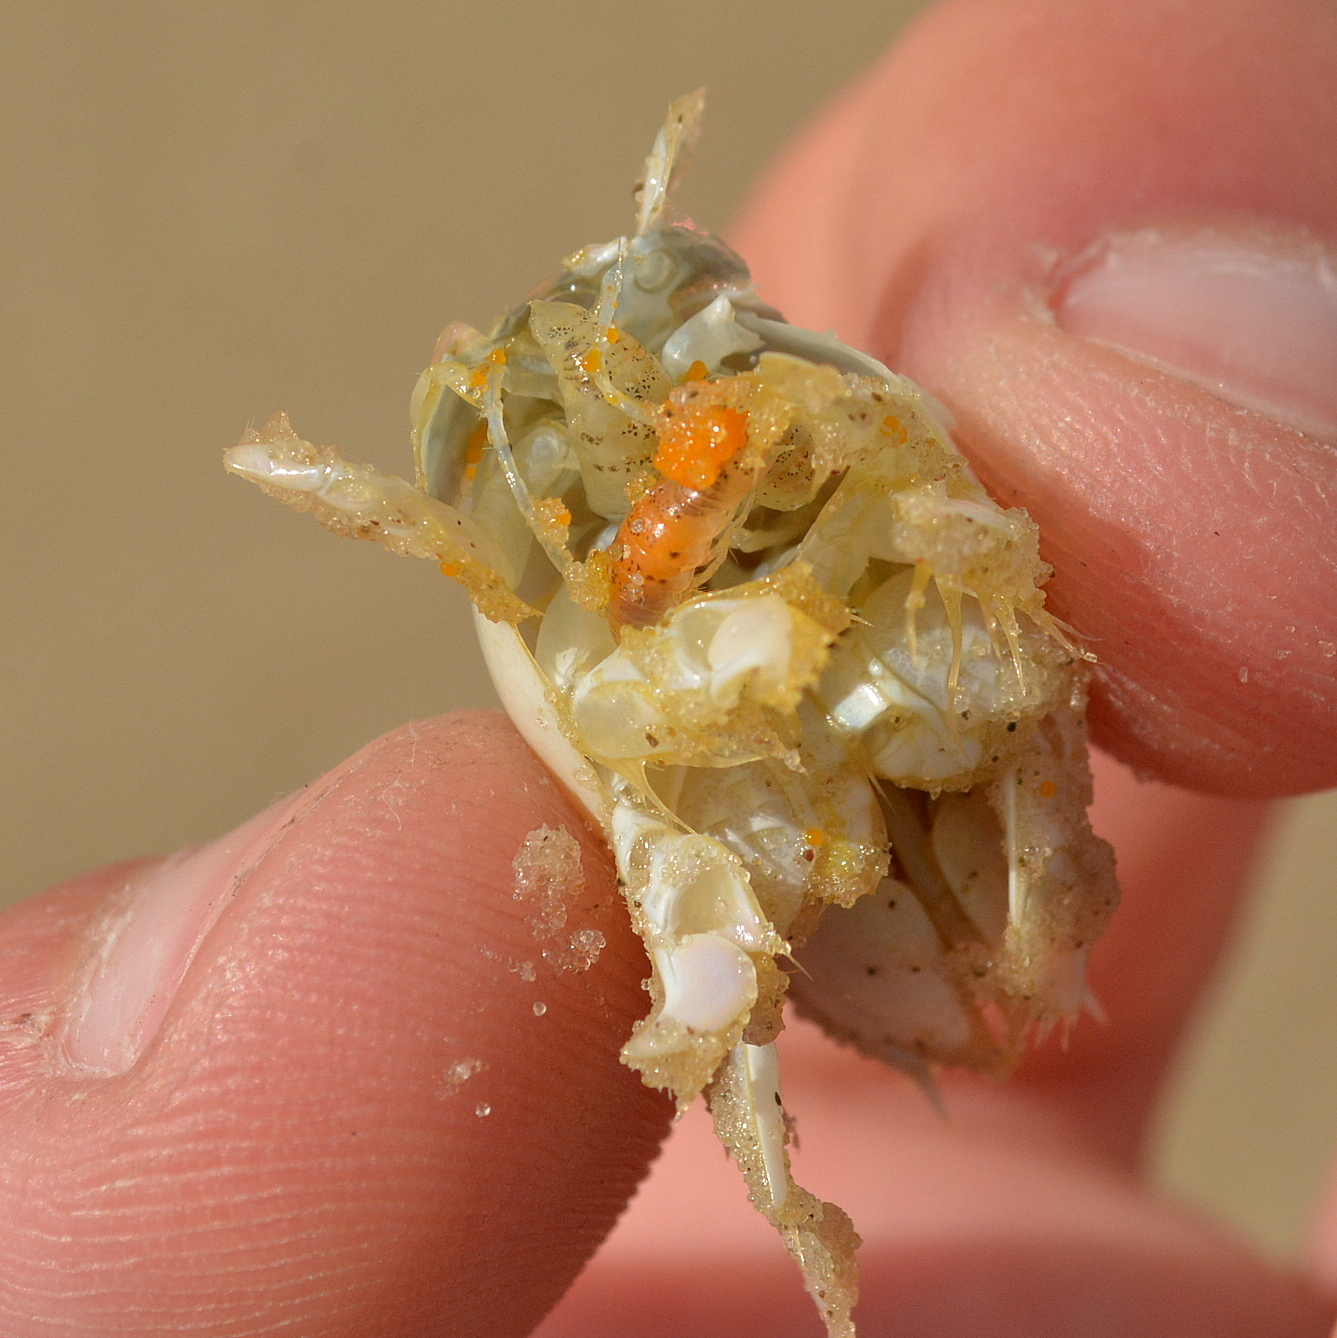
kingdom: Animalia
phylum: Arthropoda
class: Malacostraca
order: Isopoda
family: Cirolanidae
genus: Excirolana
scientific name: Excirolana armata
